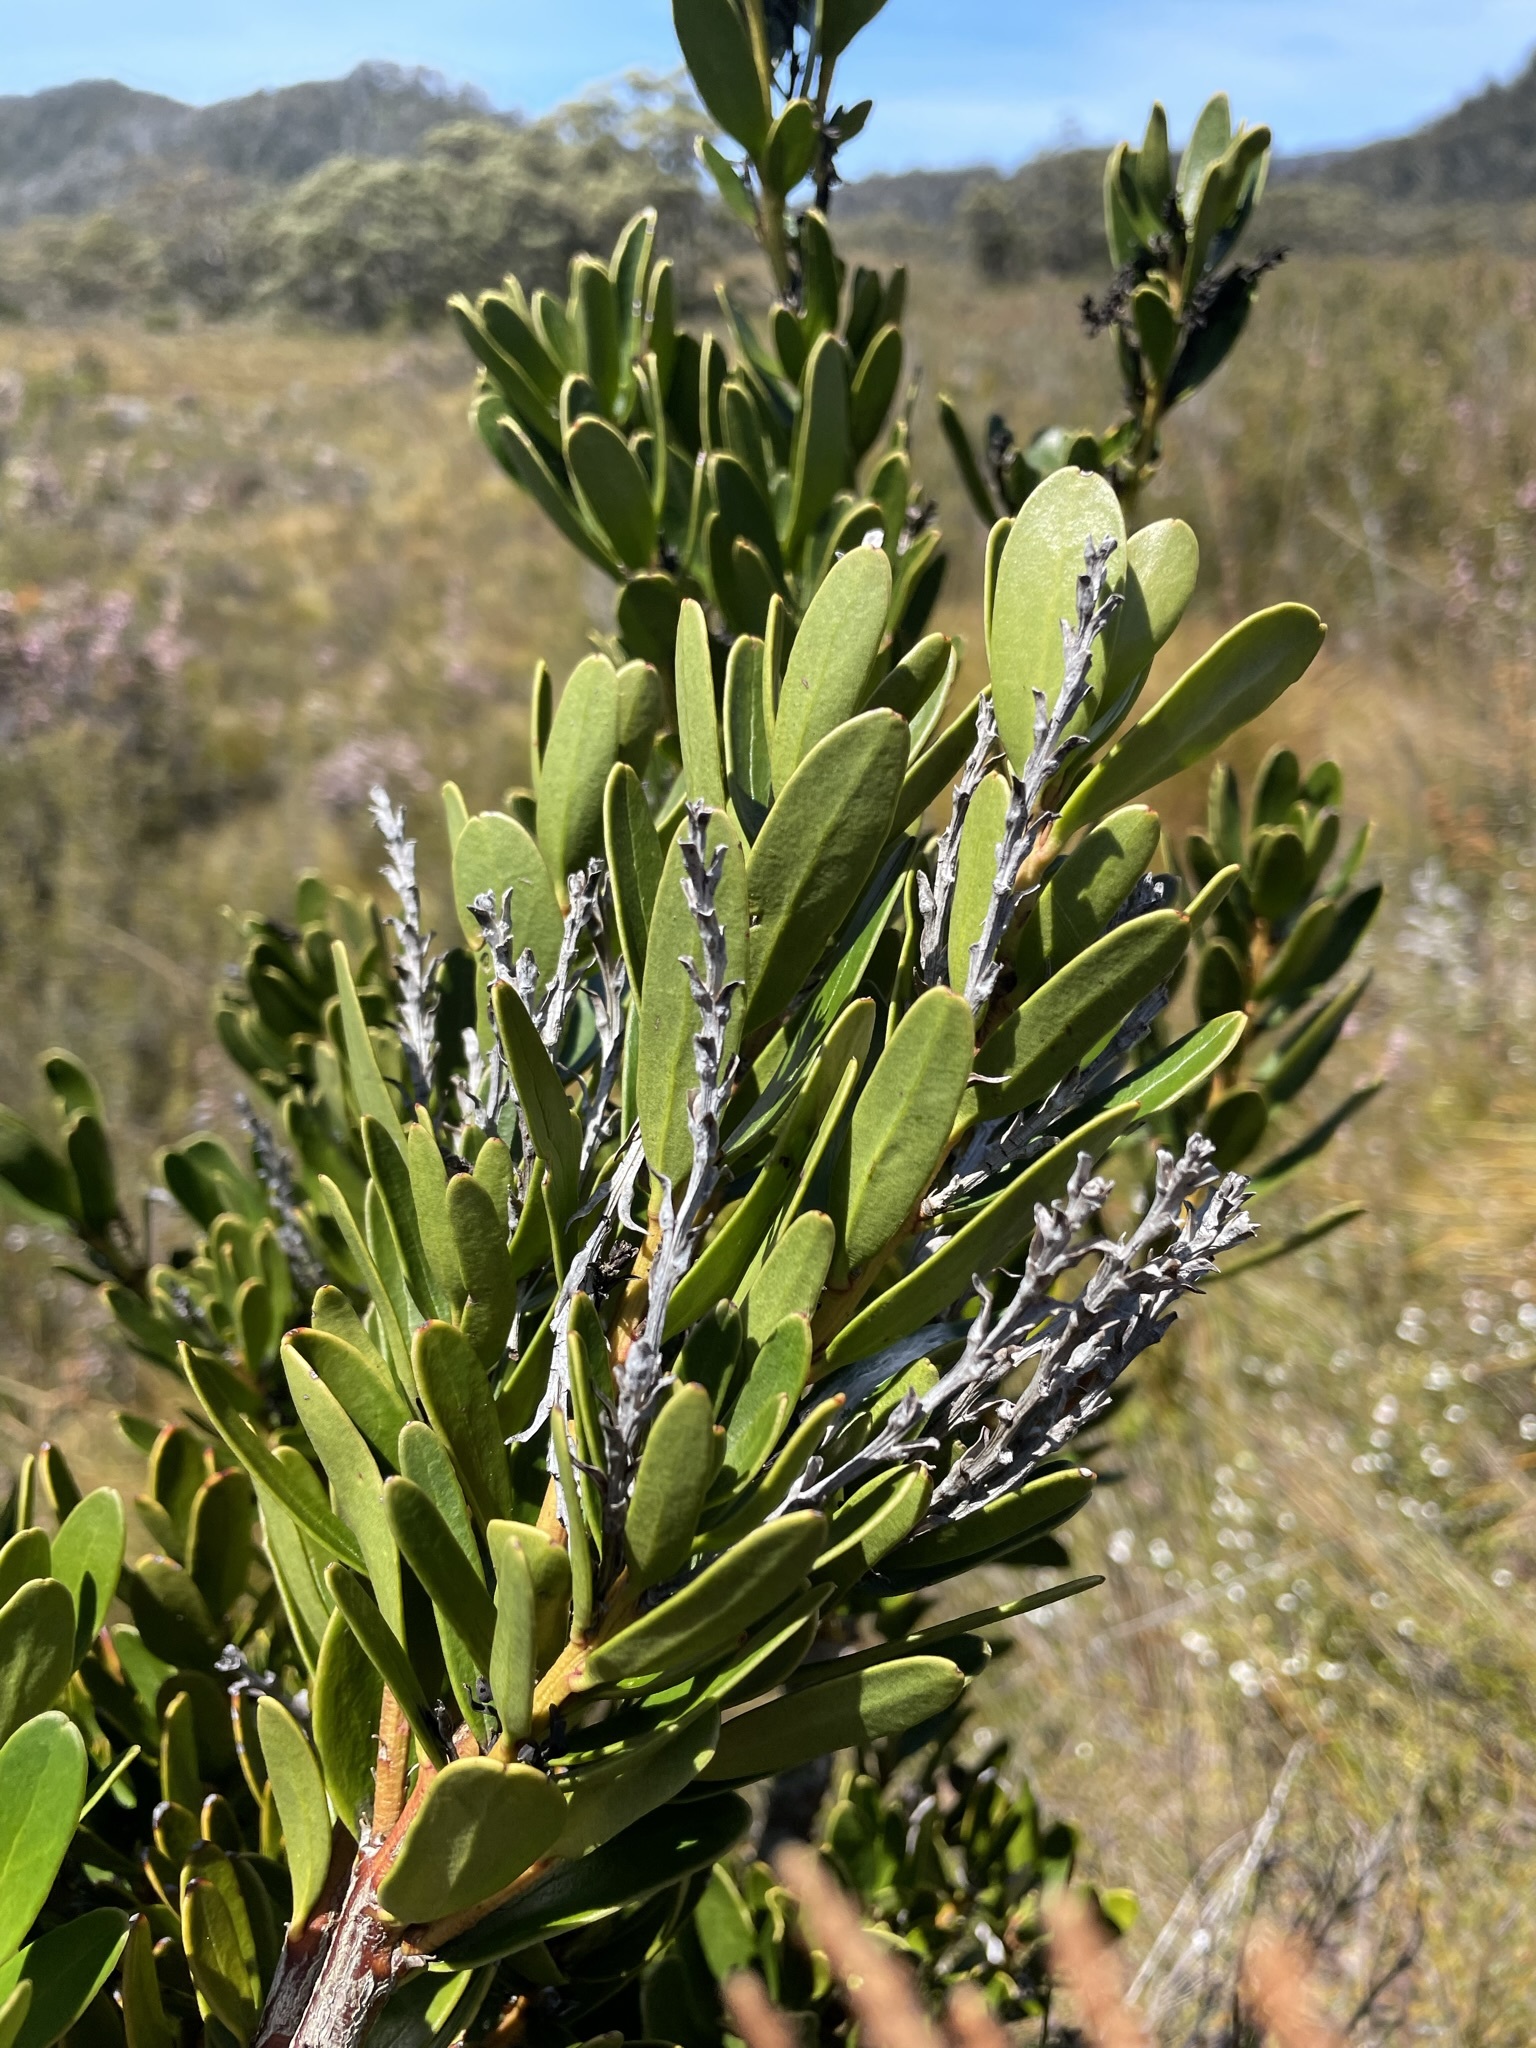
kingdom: Plantae
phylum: Tracheophyta
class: Magnoliopsida
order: Proteales
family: Proteaceae
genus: Agastachys
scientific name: Agastachys odorata
